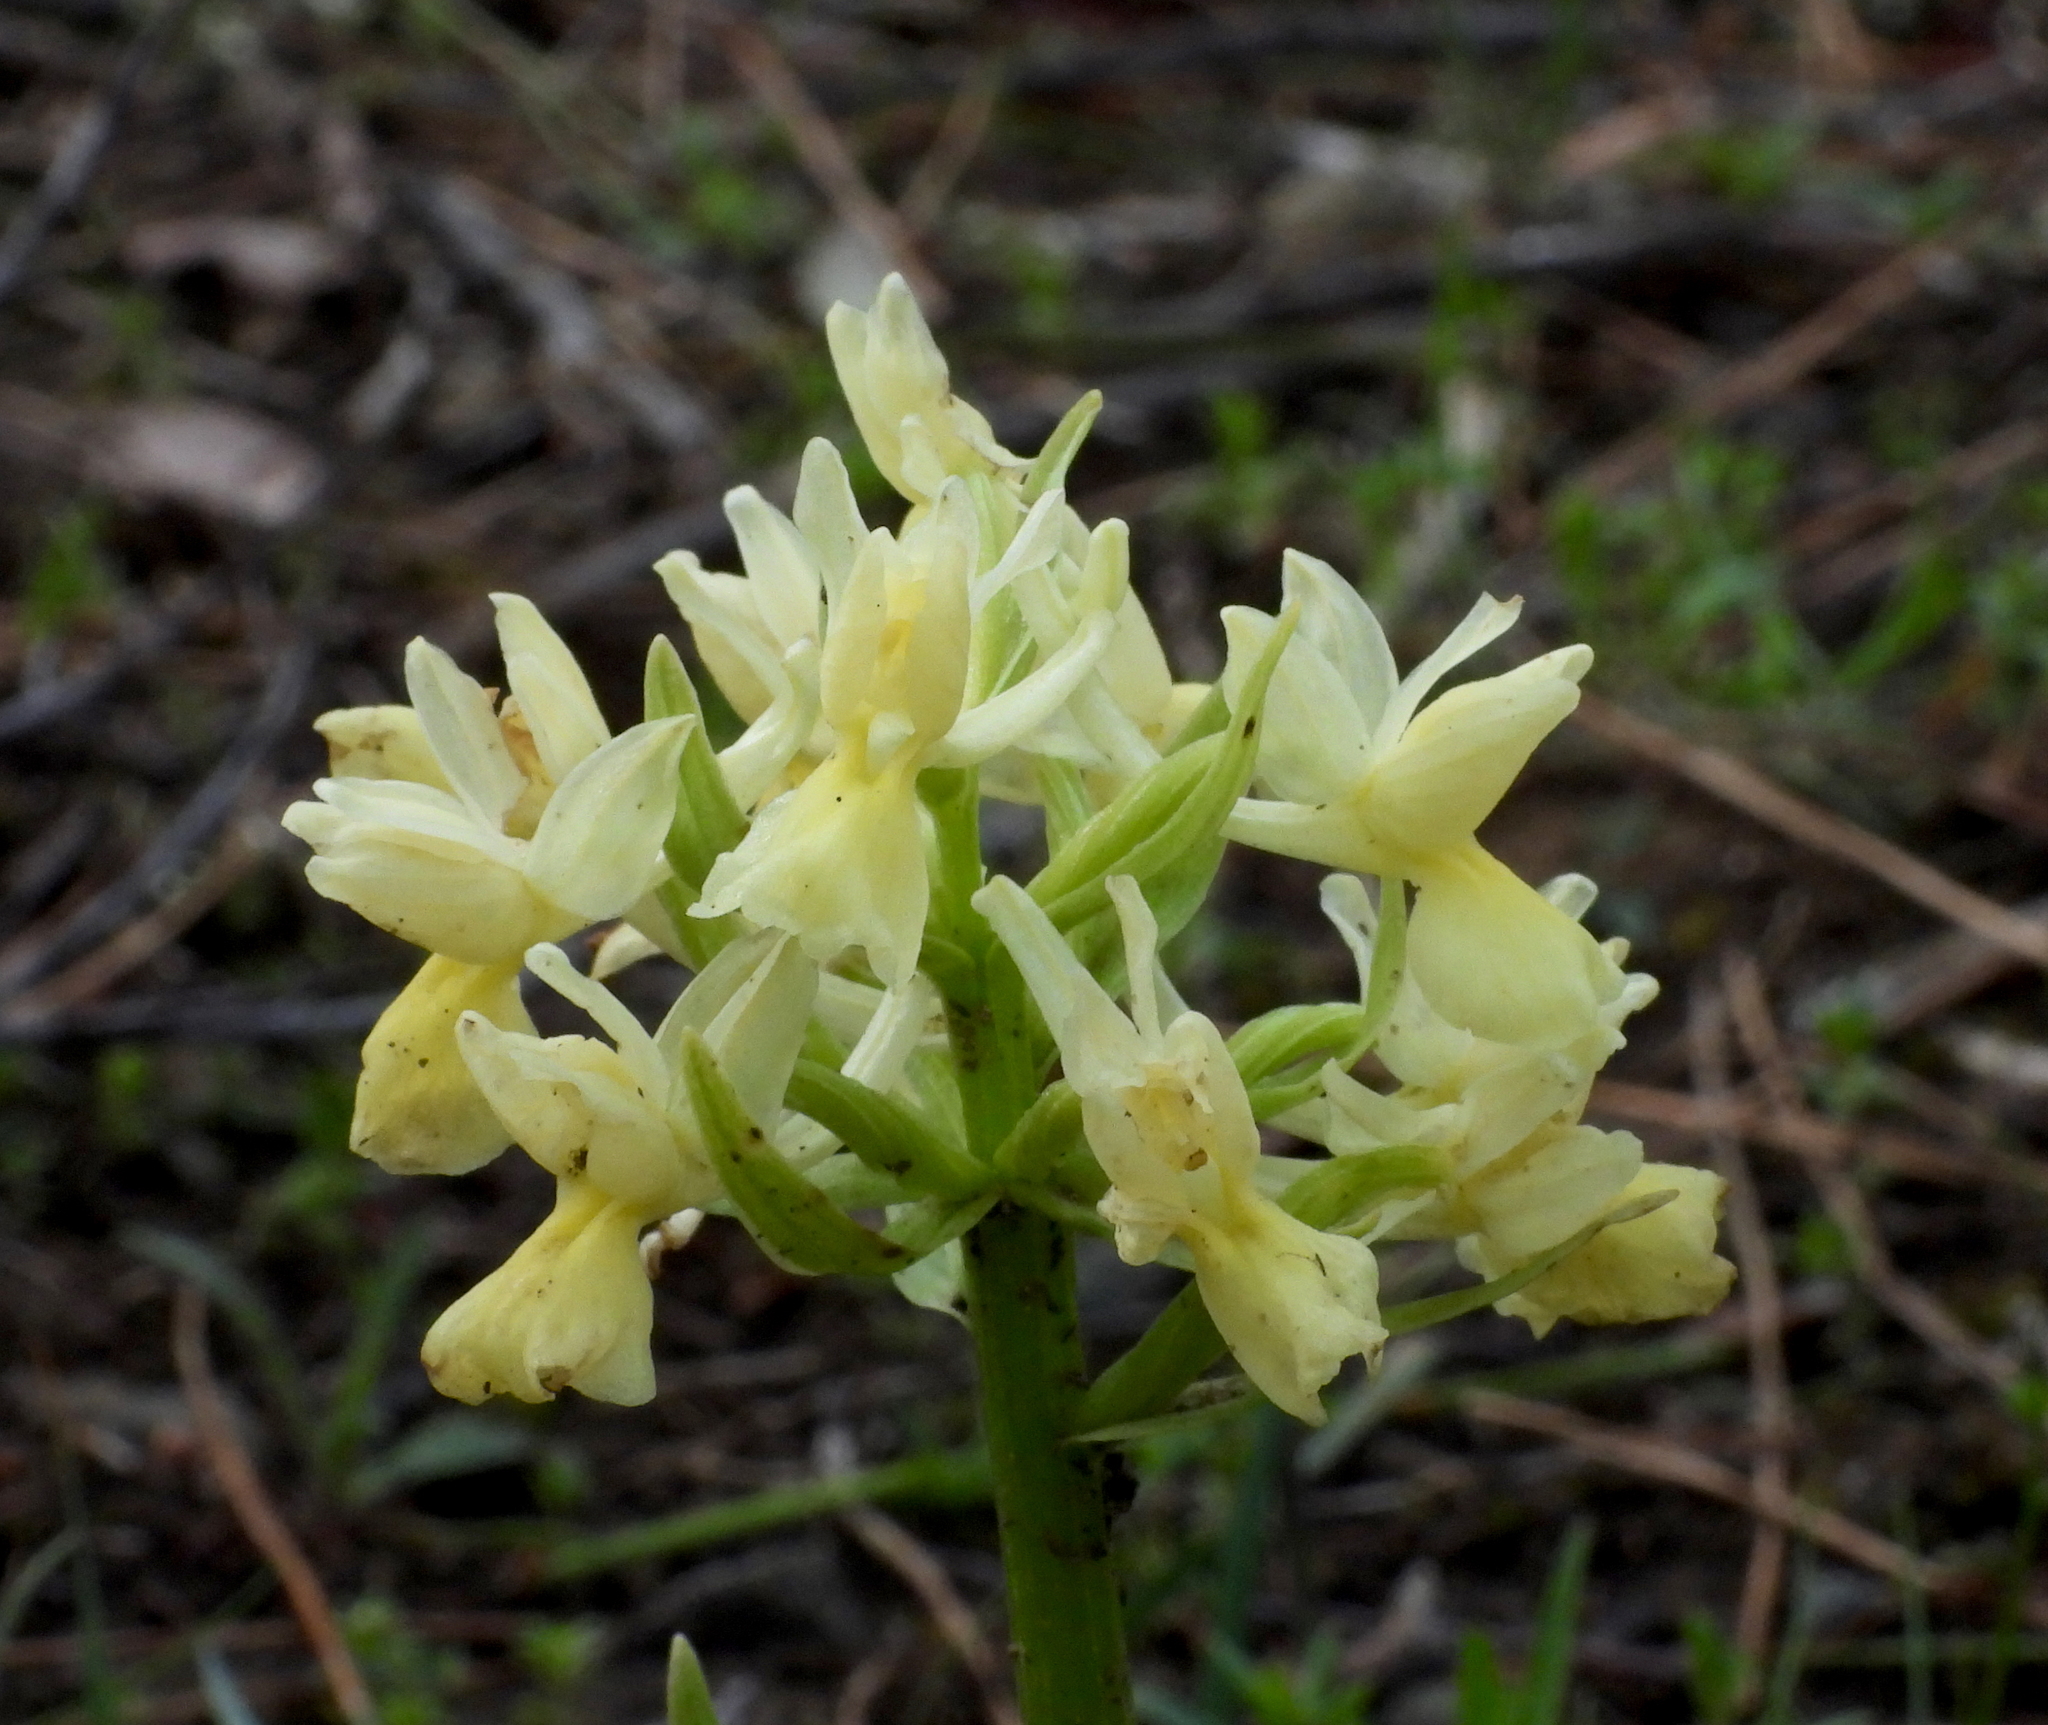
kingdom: Plantae
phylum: Tracheophyta
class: Liliopsida
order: Asparagales
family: Orchidaceae
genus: Dactylorhiza
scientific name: Dactylorhiza romana
